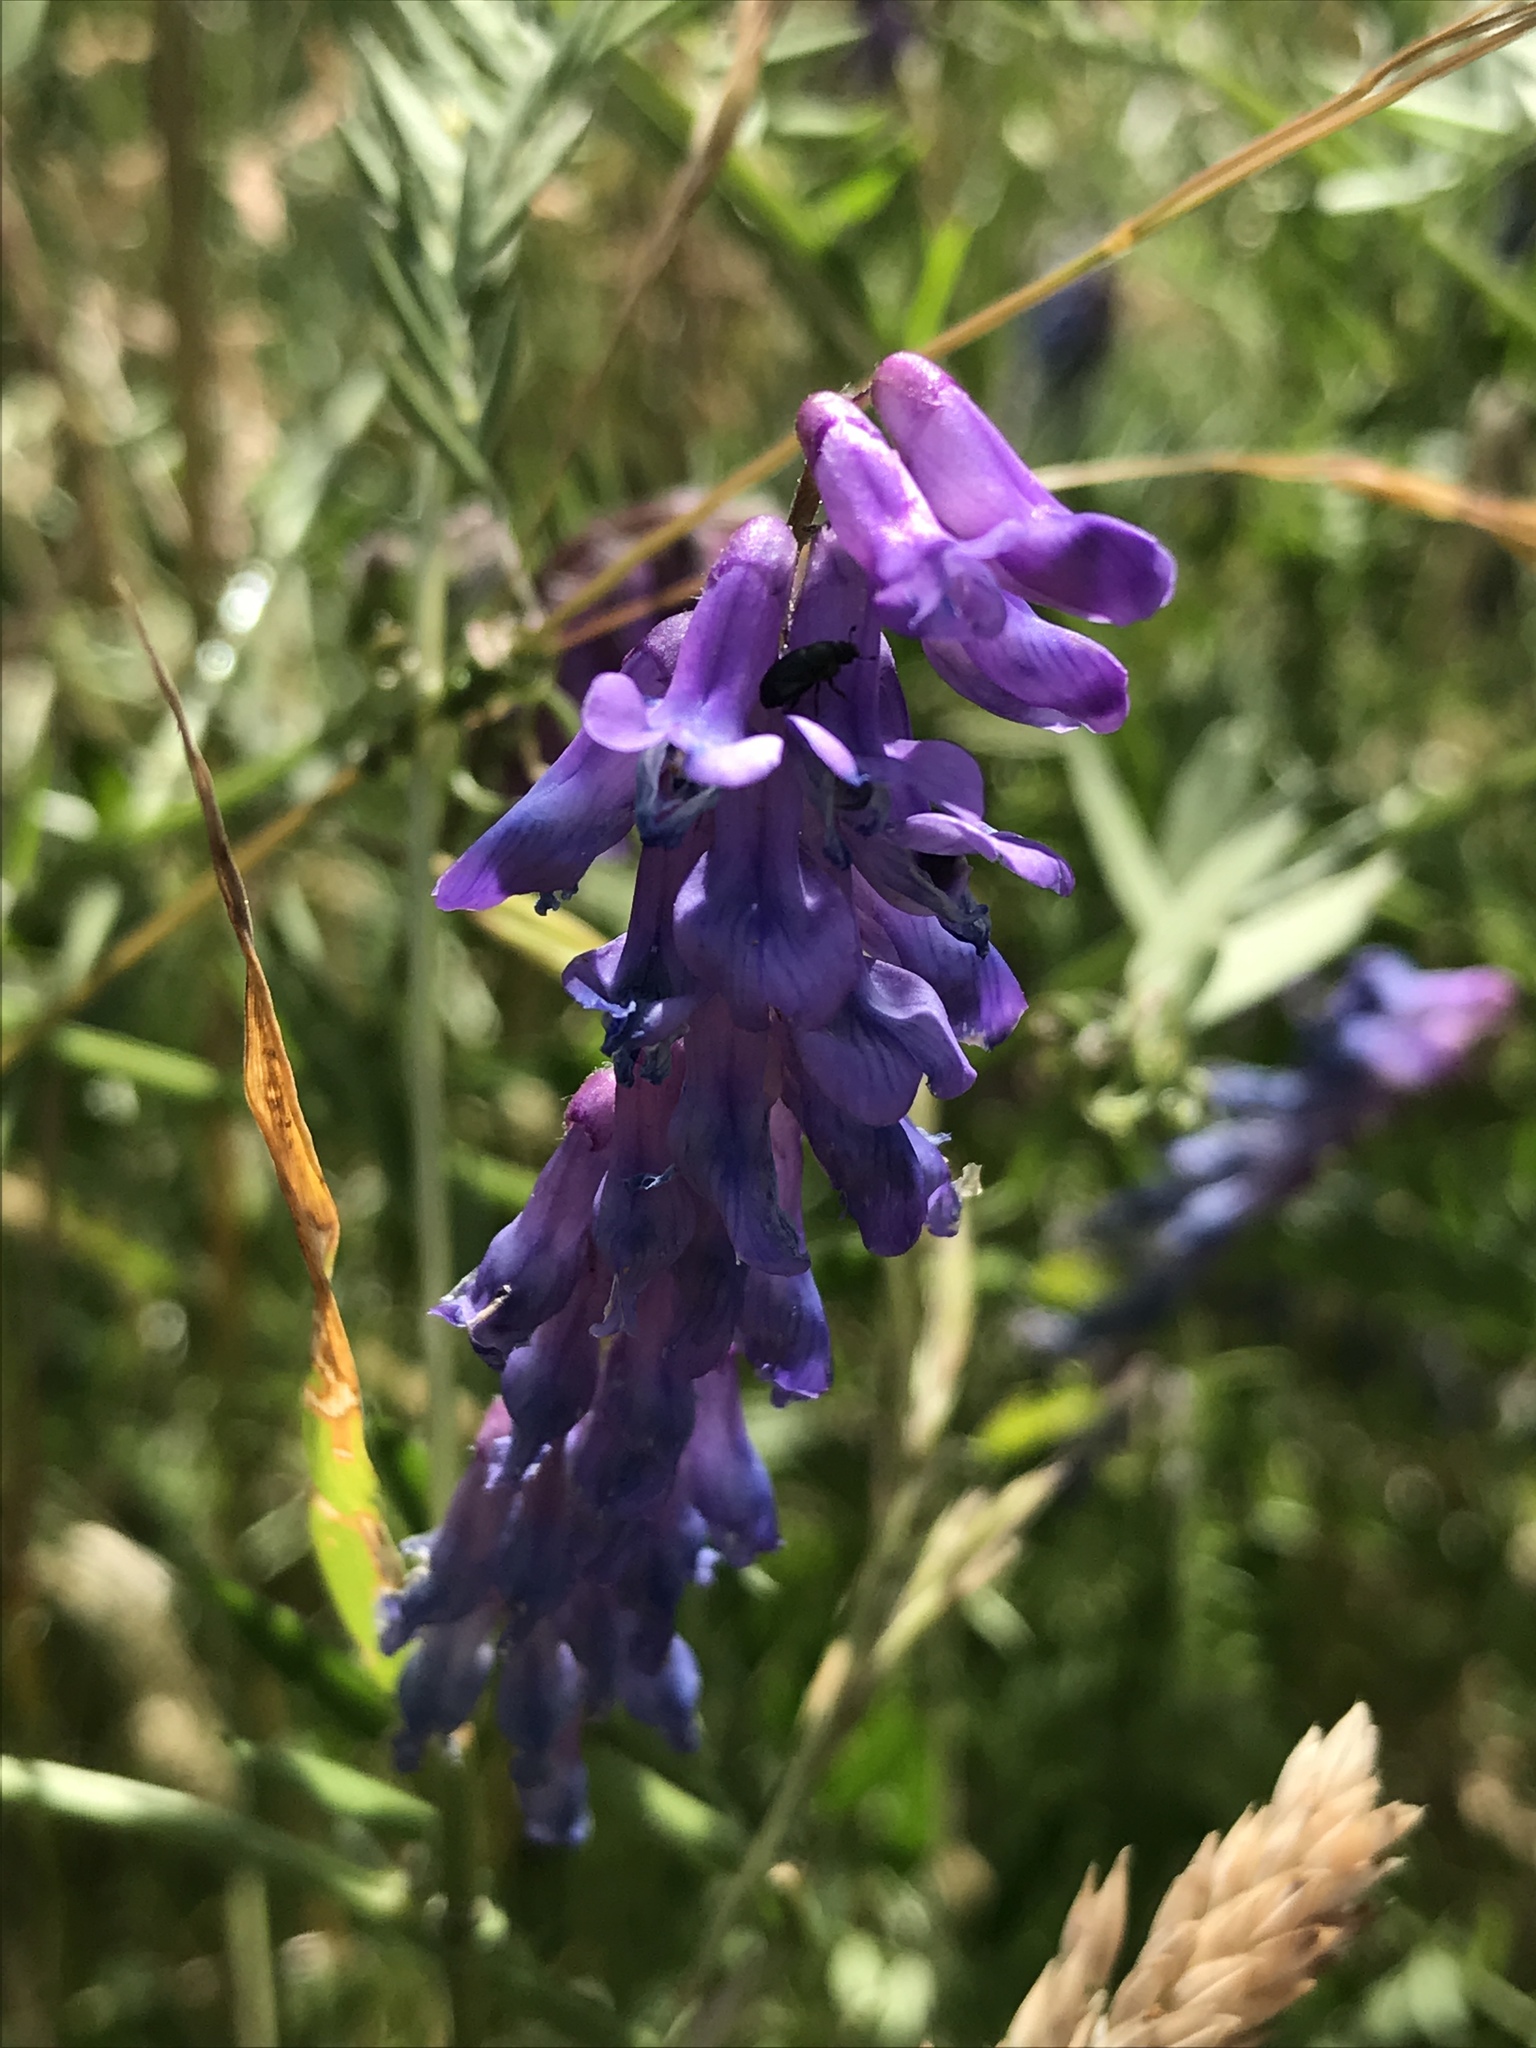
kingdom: Plantae
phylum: Tracheophyta
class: Magnoliopsida
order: Fabales
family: Fabaceae
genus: Vicia
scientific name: Vicia cracca
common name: Bird vetch
